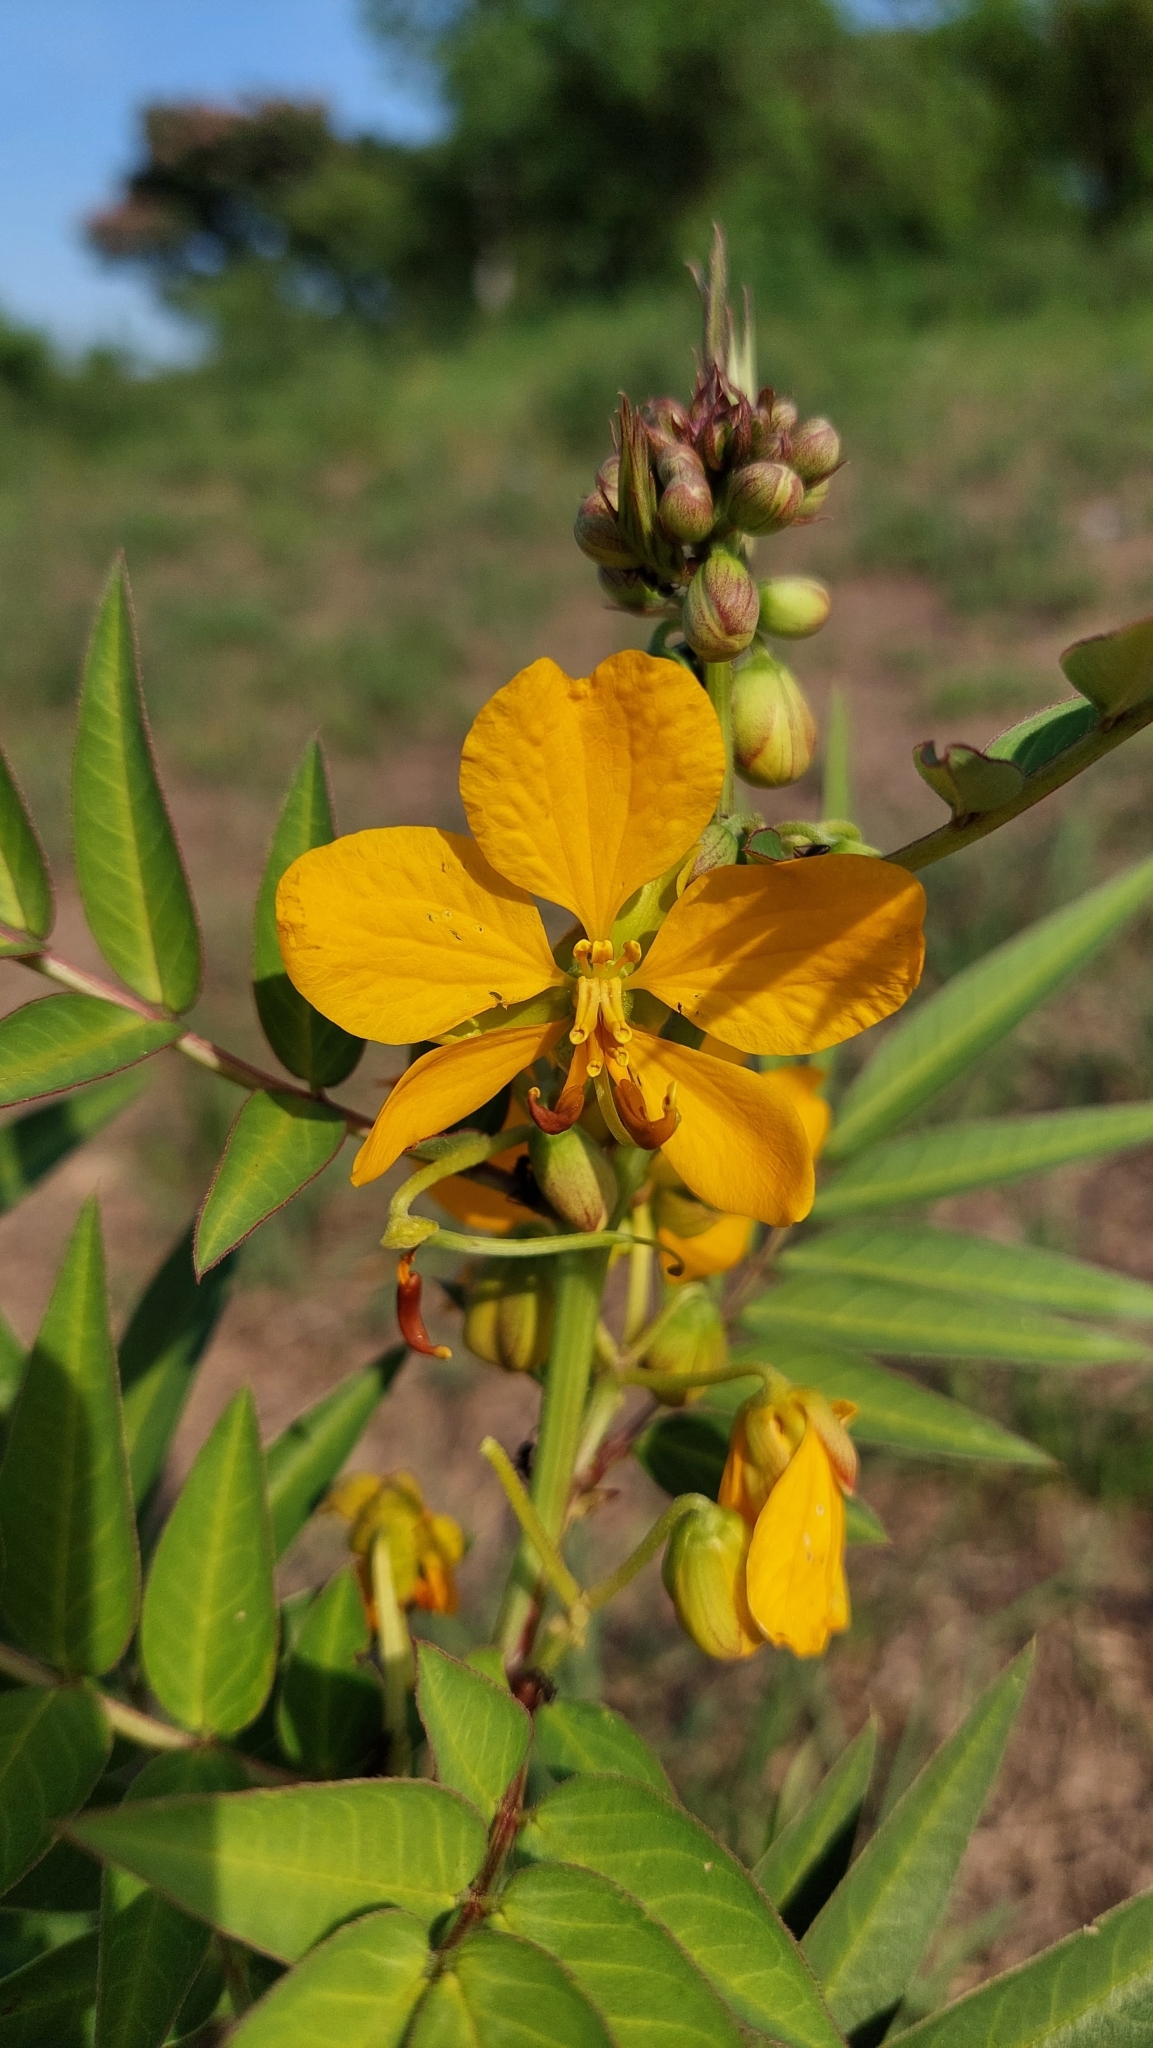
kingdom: Plantae
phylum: Tracheophyta
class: Magnoliopsida
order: Fabales
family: Fabaceae
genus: Senna
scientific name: Senna scabriuscula
